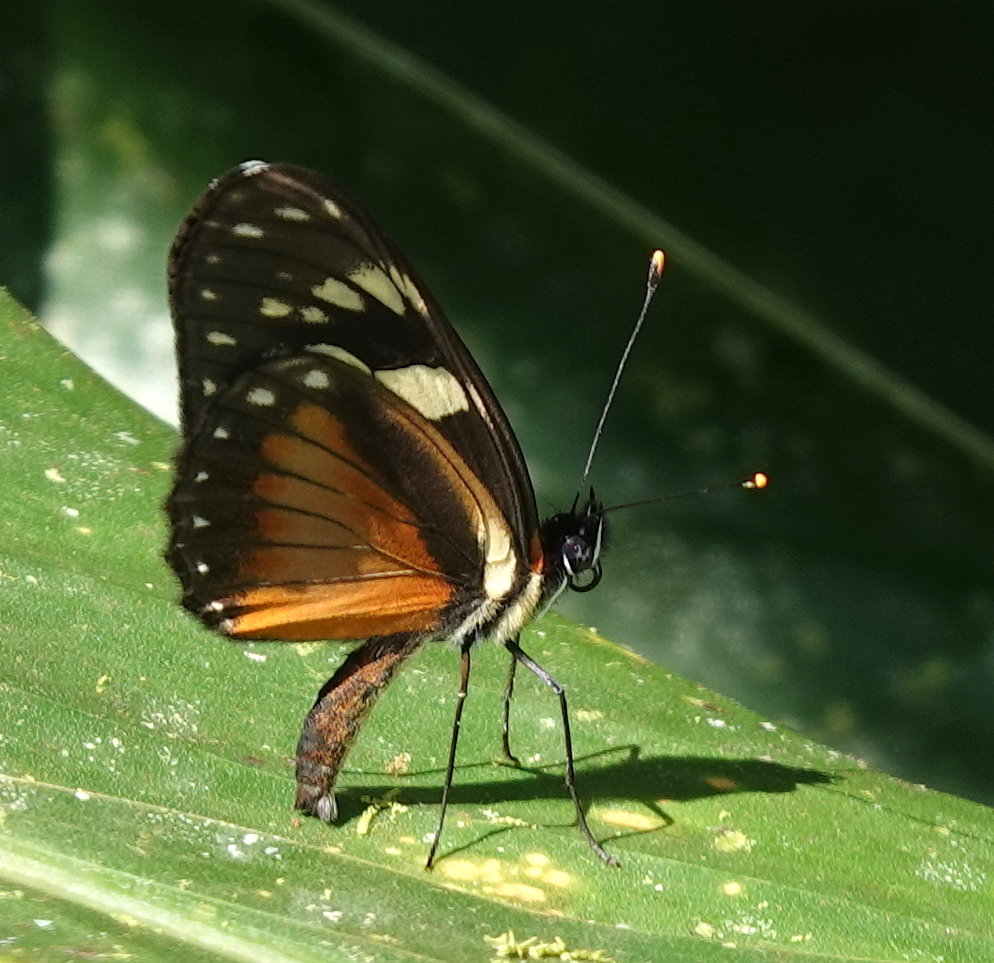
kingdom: Animalia
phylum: Arthropoda
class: Insecta
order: Lepidoptera
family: Nymphalidae
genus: Eresia
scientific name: Eresia datis
